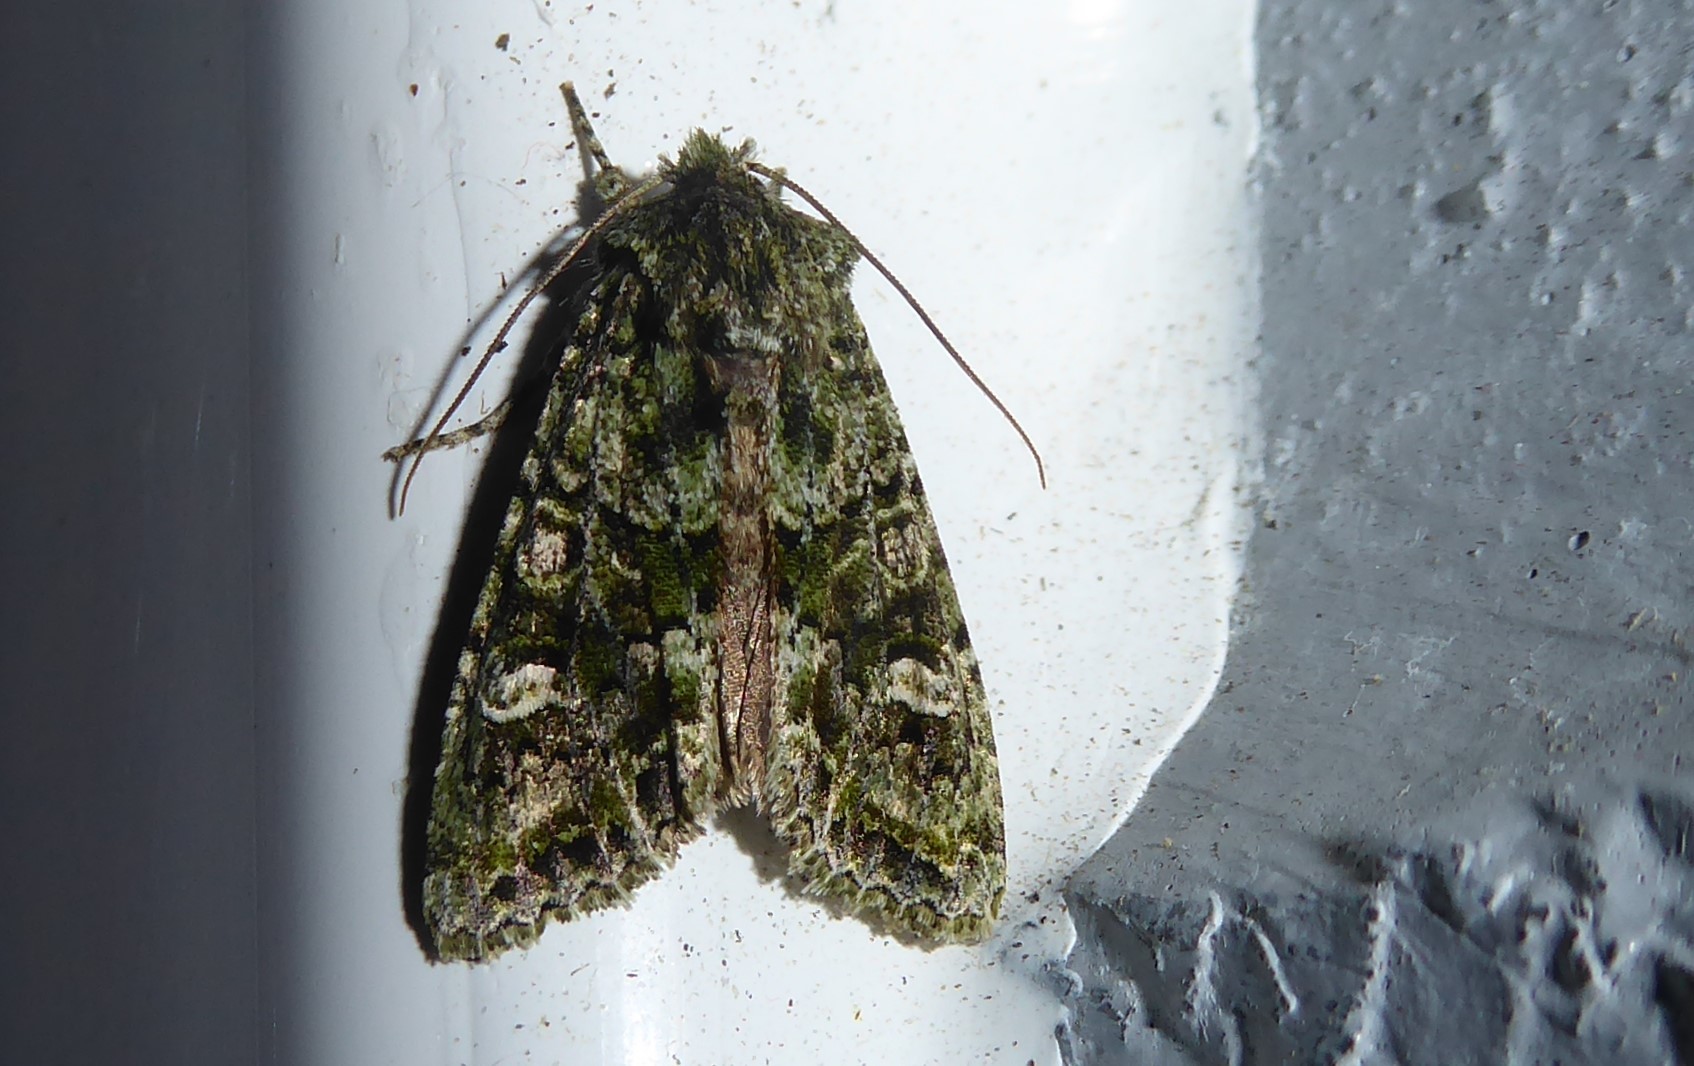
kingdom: Animalia
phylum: Arthropoda
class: Insecta
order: Lepidoptera
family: Noctuidae
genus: Ichneutica
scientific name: Ichneutica
